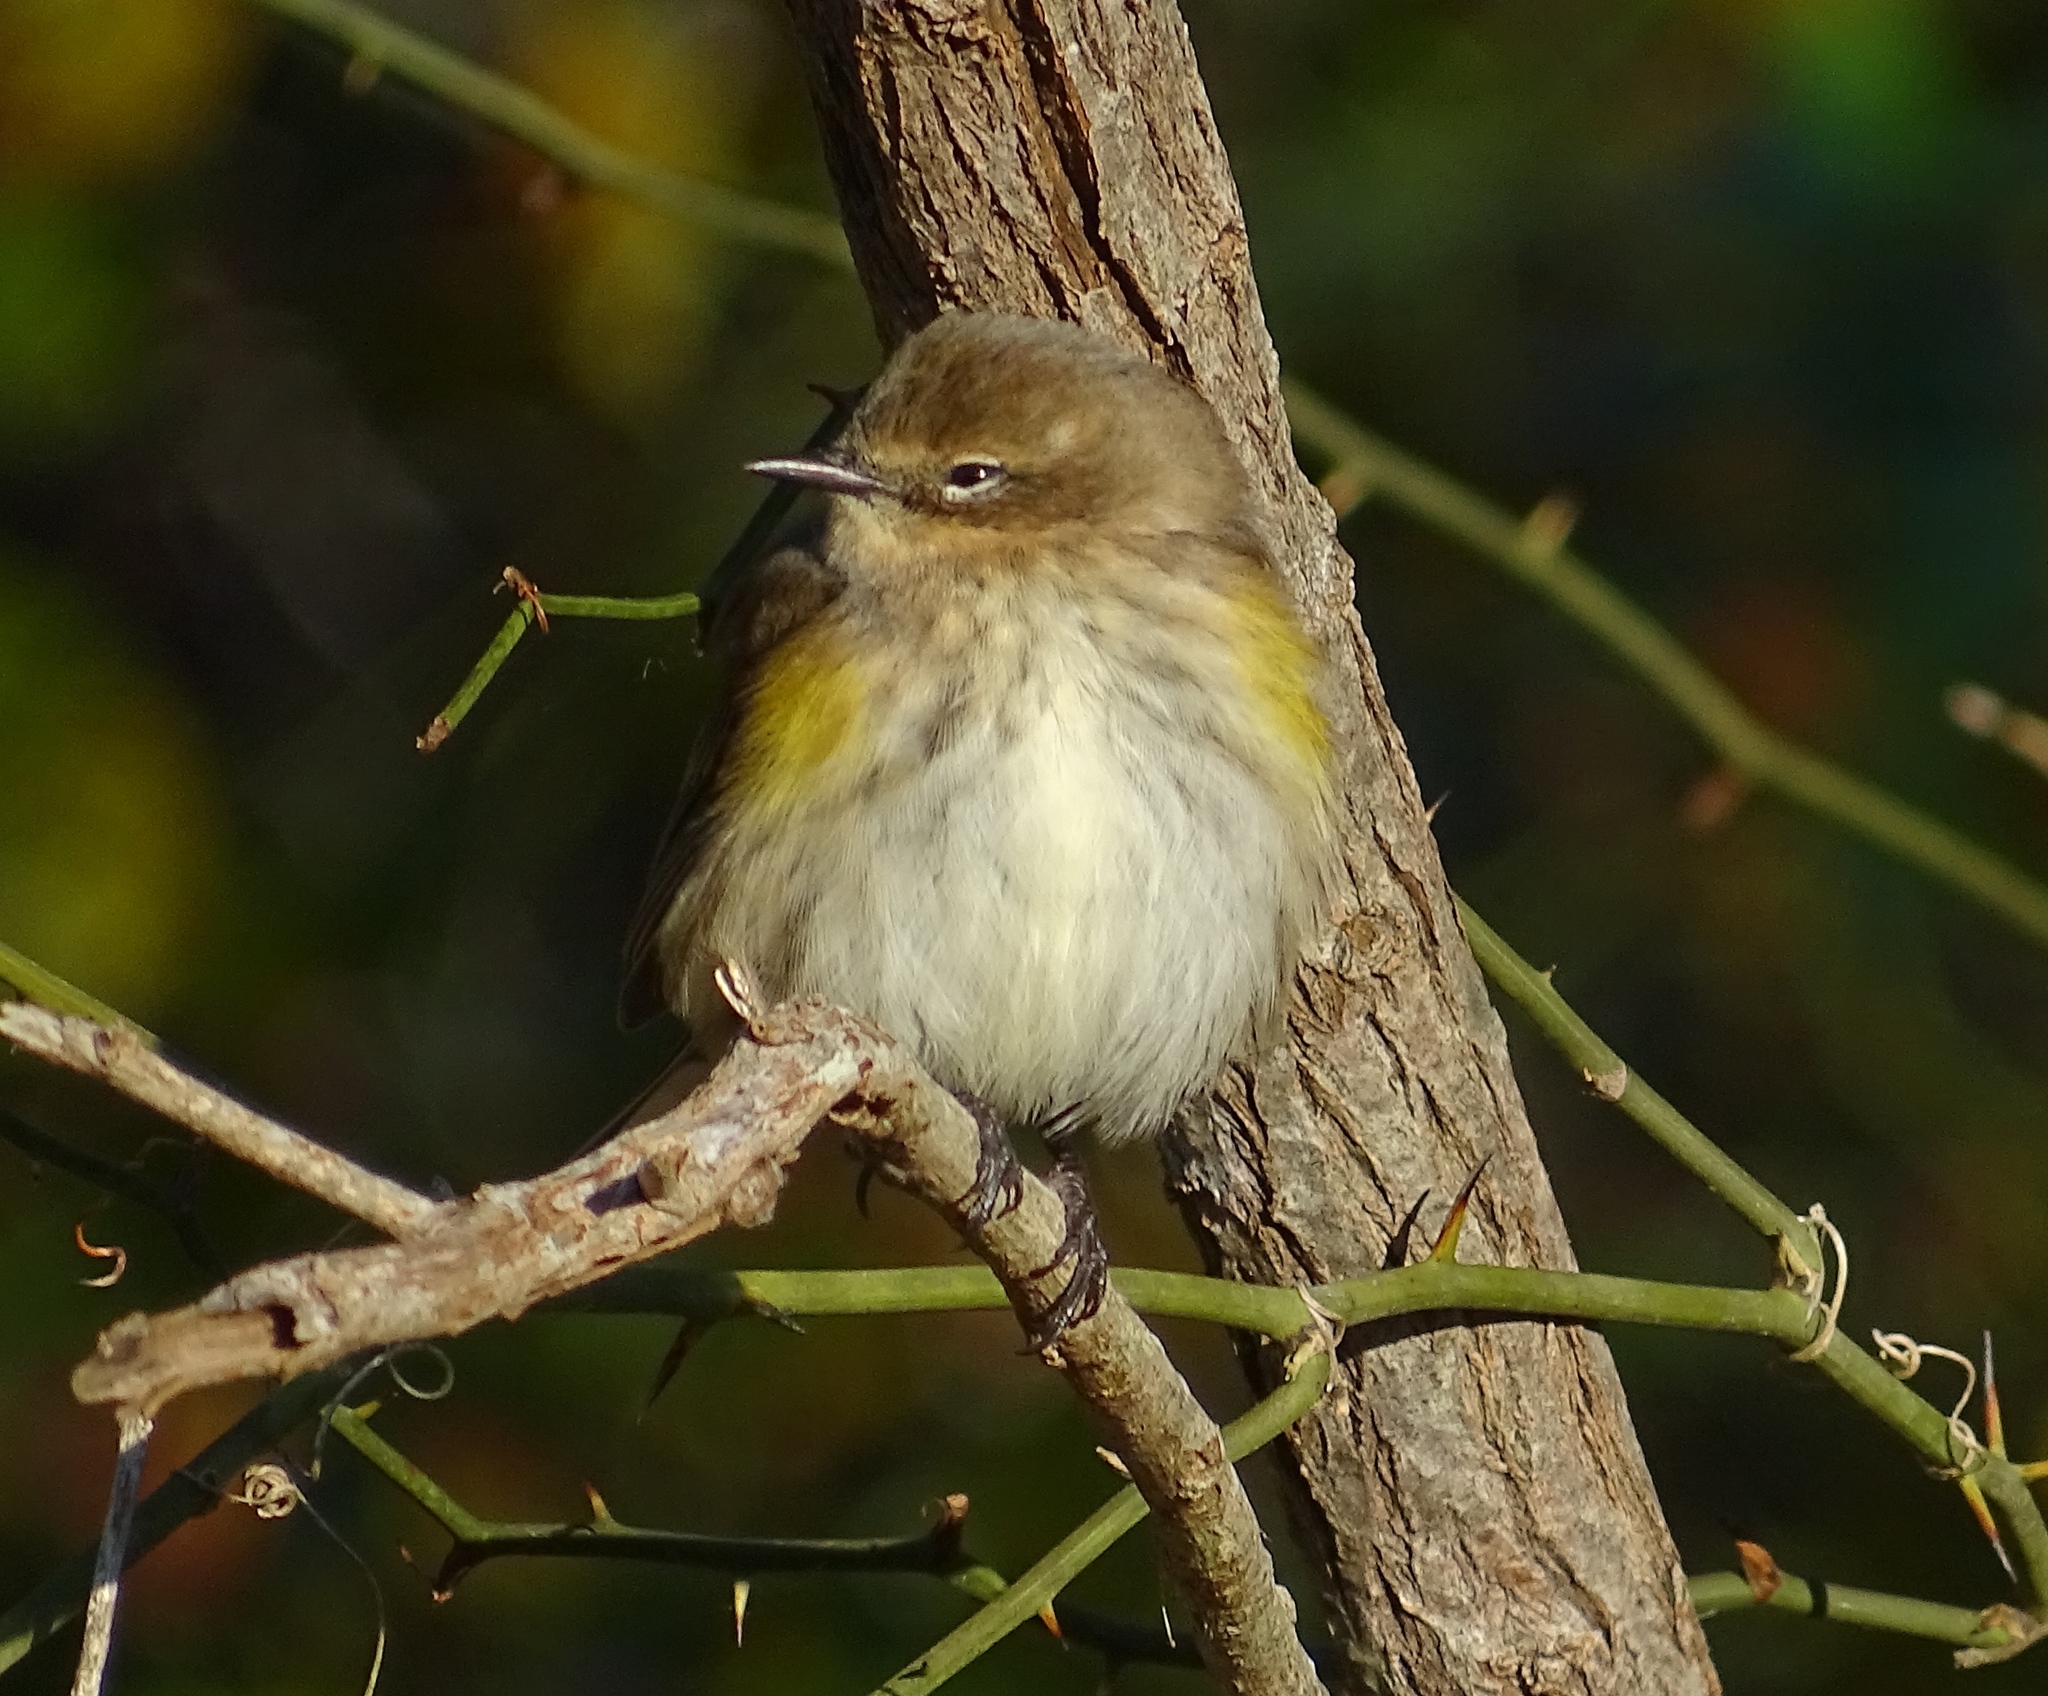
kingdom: Animalia
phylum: Chordata
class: Aves
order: Passeriformes
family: Parulidae
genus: Setophaga
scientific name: Setophaga coronata
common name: Myrtle warbler
